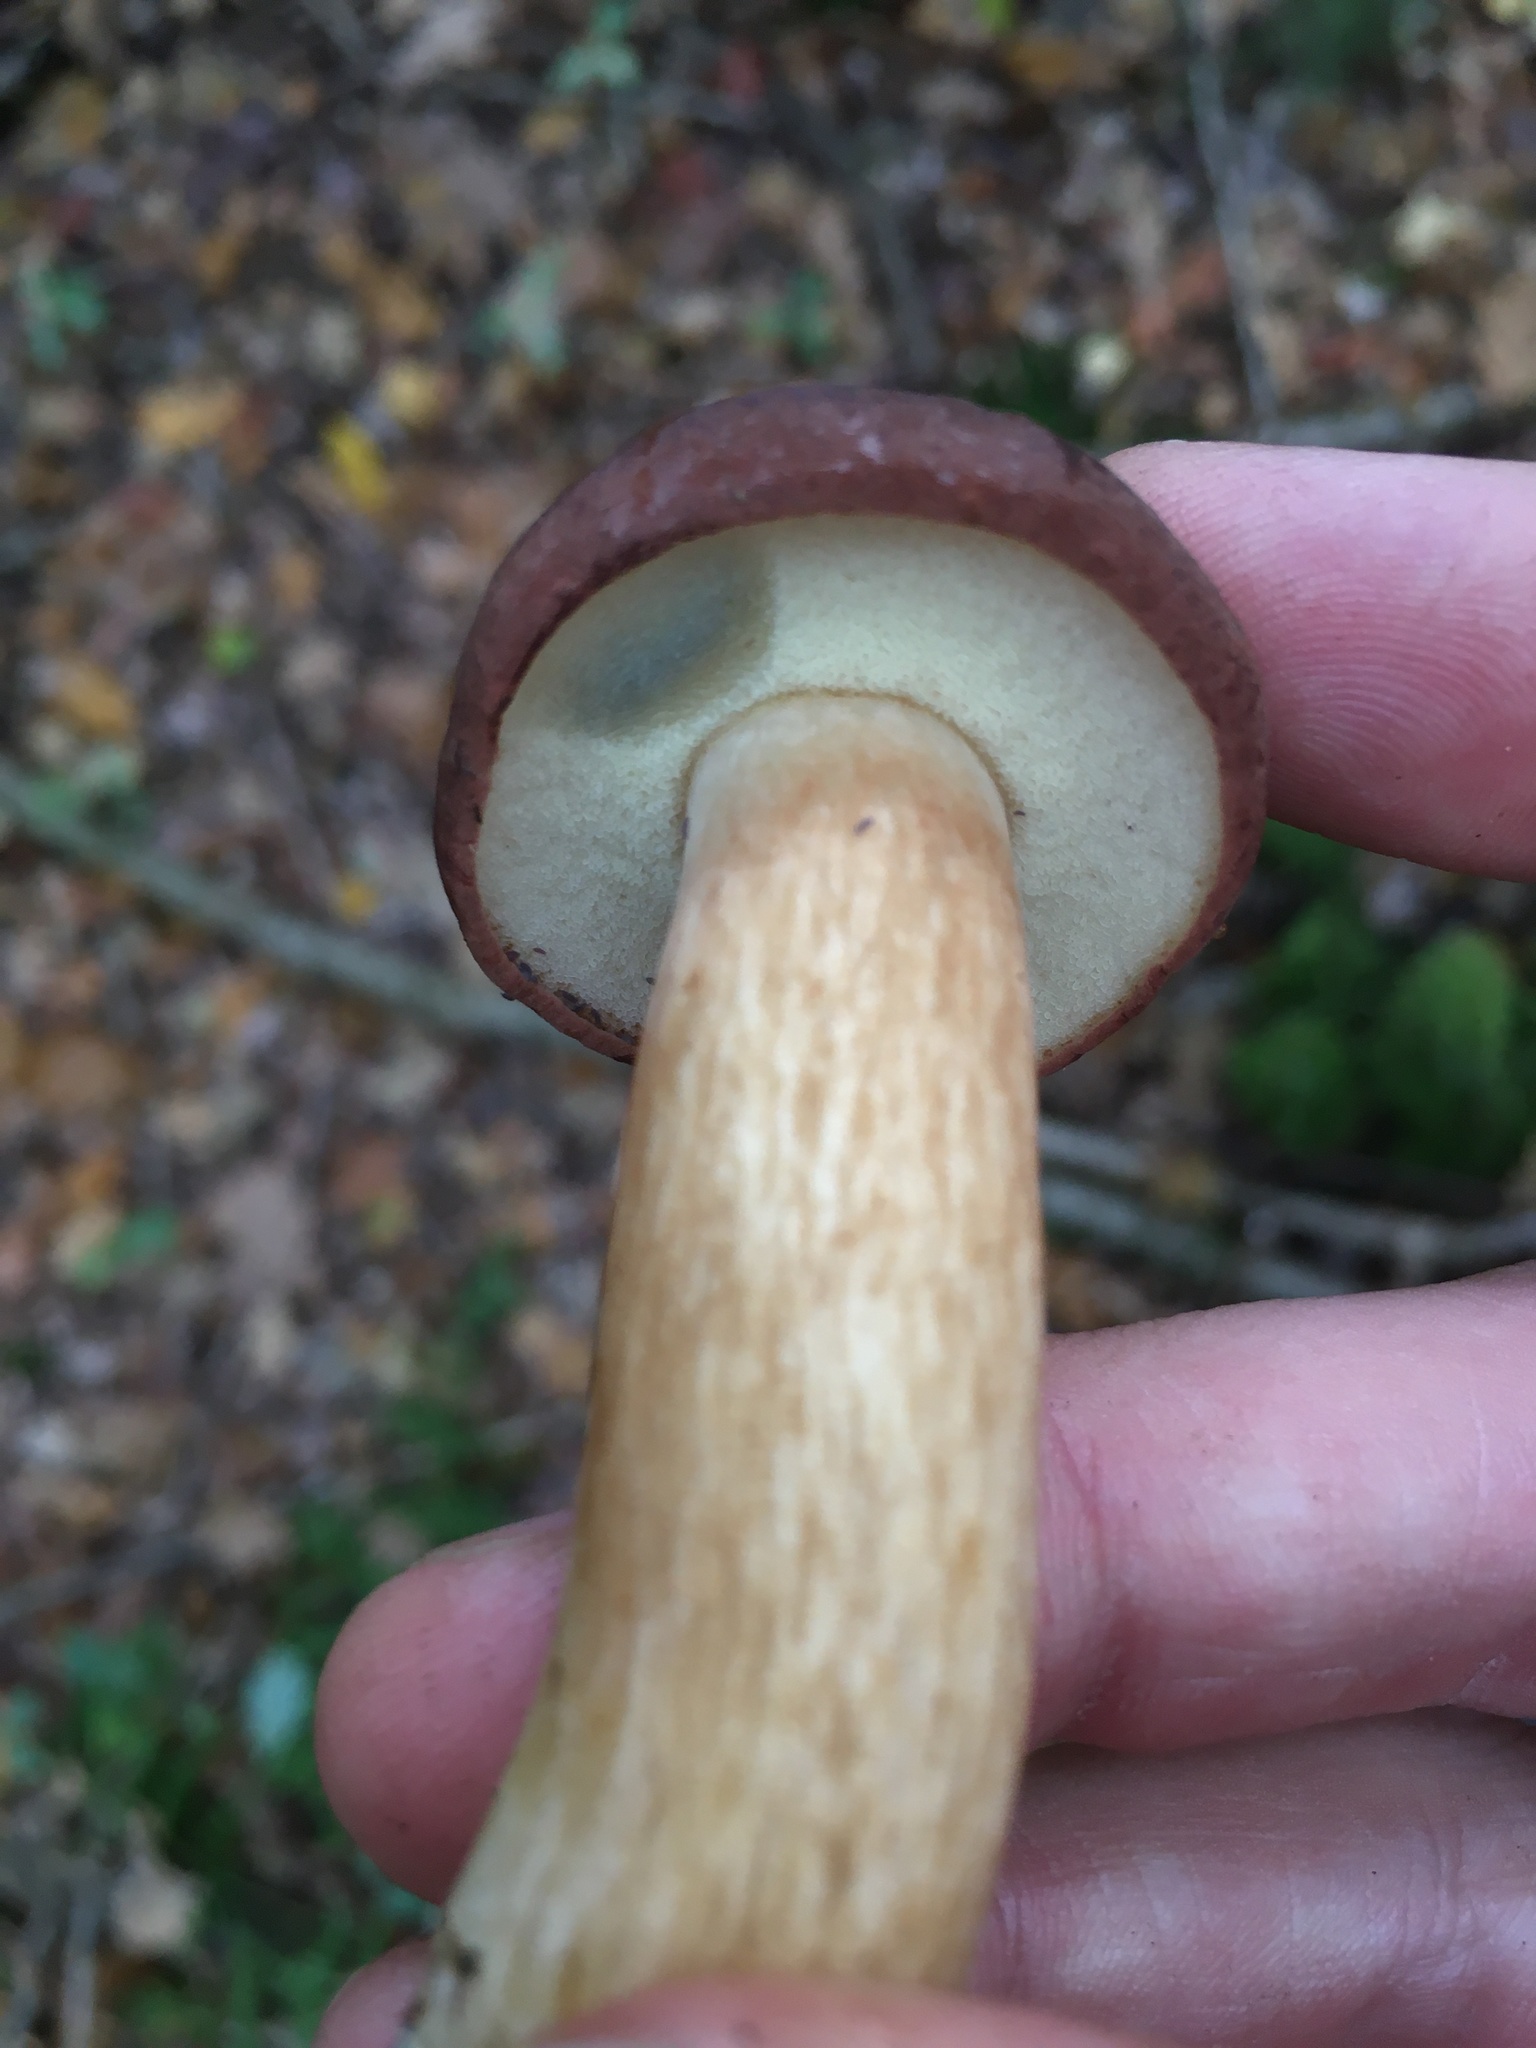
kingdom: Fungi
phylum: Basidiomycota
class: Agaricomycetes
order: Boletales
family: Boletaceae
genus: Imleria
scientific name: Imleria badia
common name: Bay bolete
